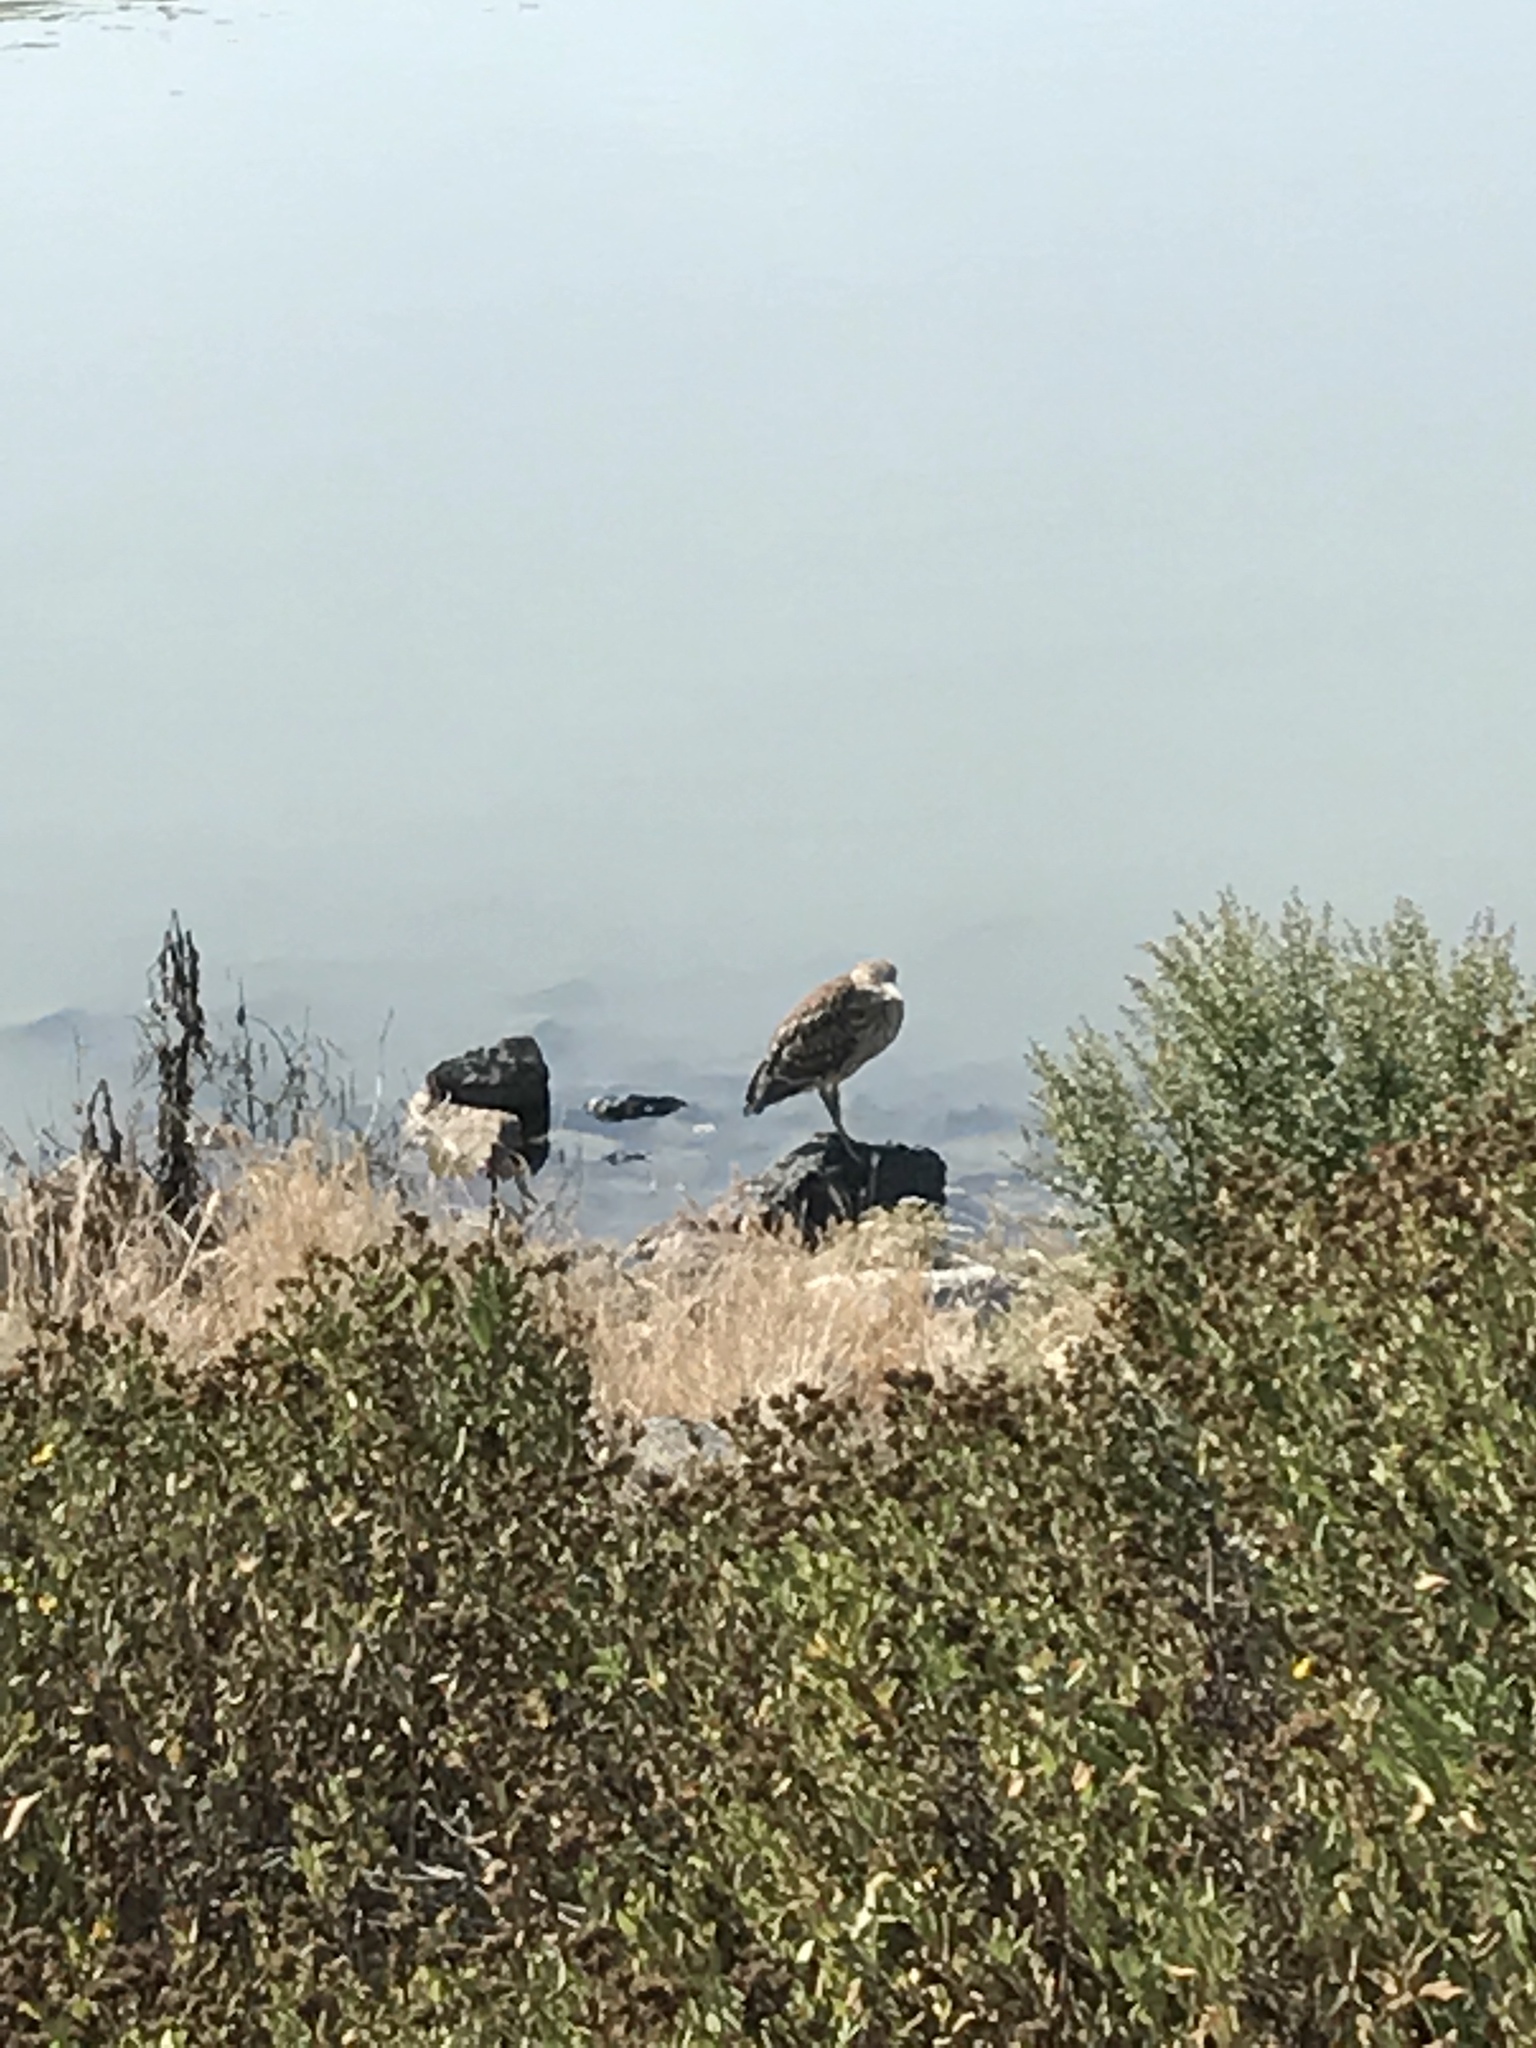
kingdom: Animalia
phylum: Chordata
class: Aves
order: Pelecaniformes
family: Ardeidae
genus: Nycticorax
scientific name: Nycticorax nycticorax
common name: Black-crowned night heron
